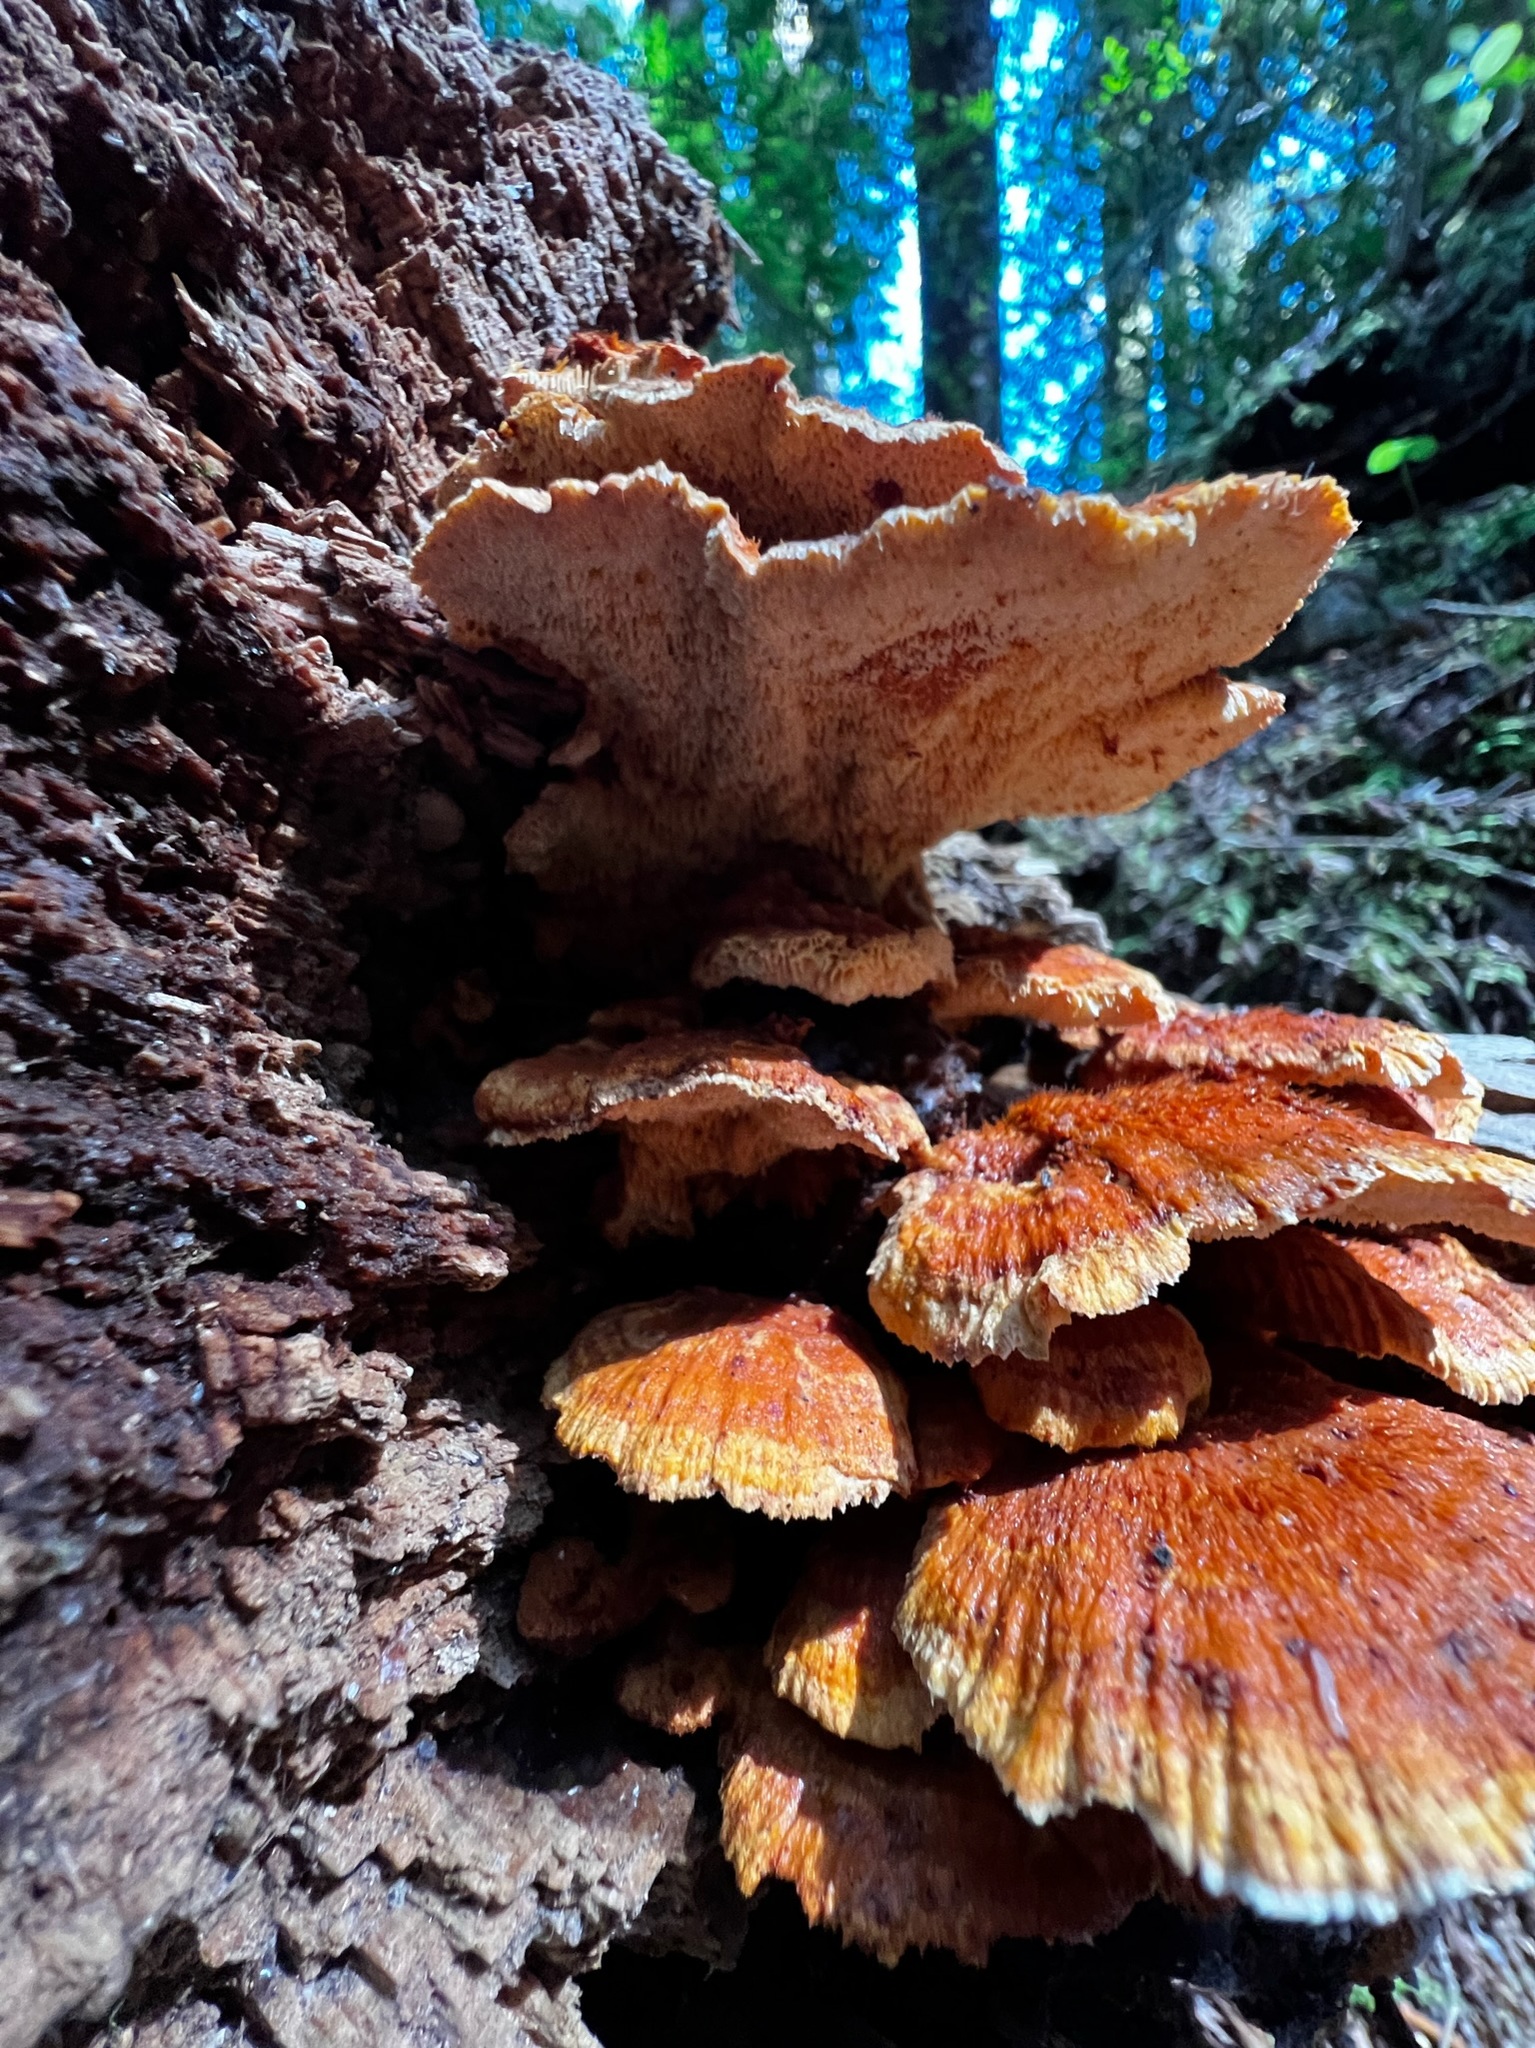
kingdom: Fungi
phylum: Basidiomycota
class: Agaricomycetes
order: Polyporales
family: Pycnoporellaceae
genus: Pycnoporellus
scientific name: Pycnoporellus fulgens
